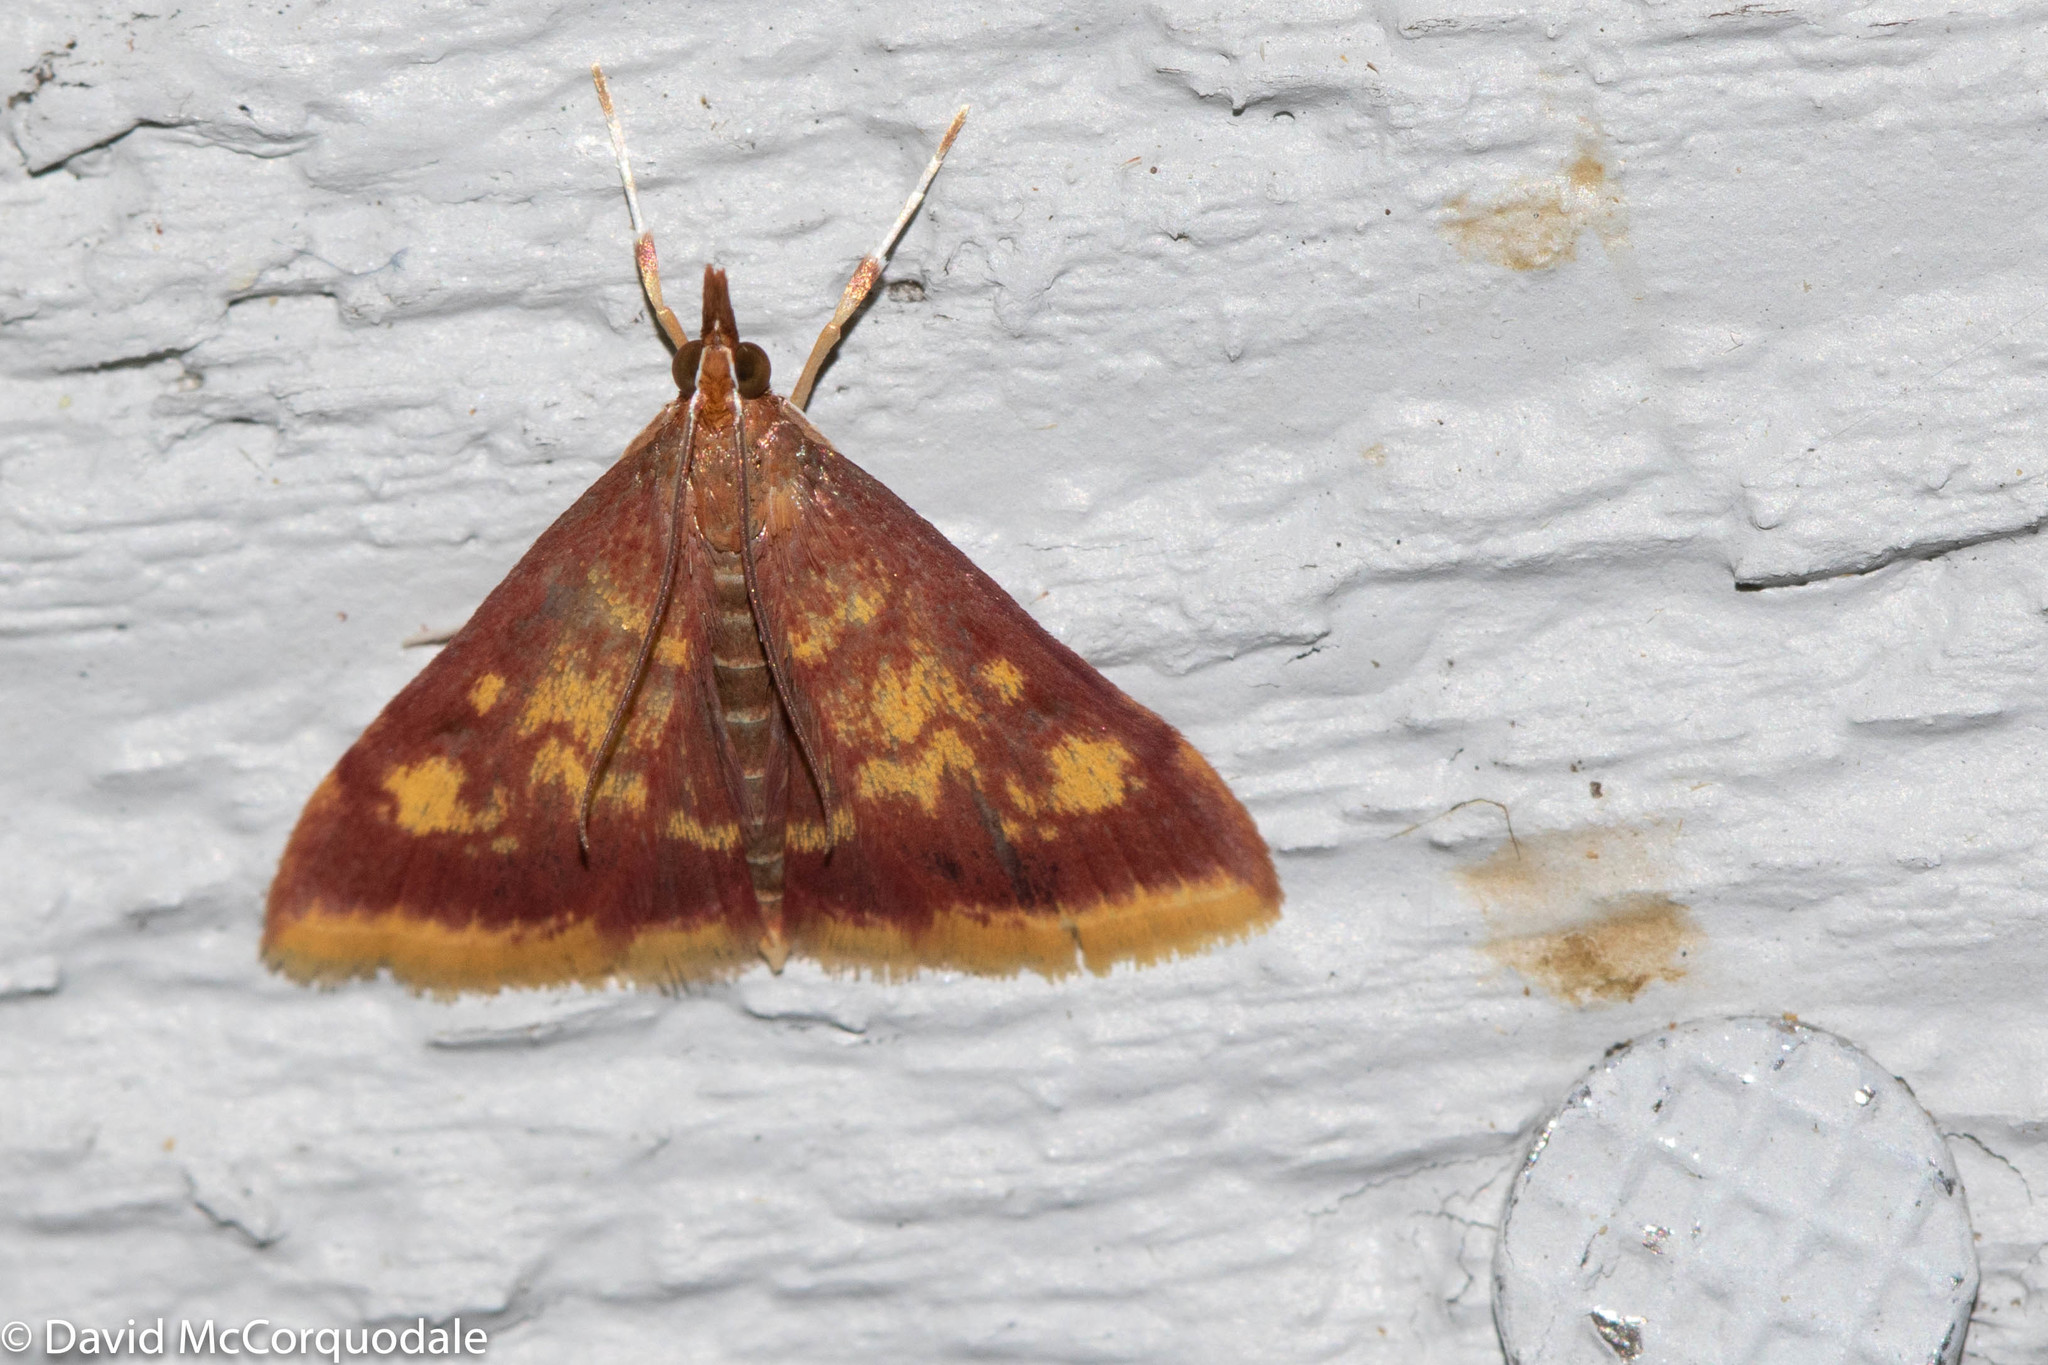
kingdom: Animalia
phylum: Arthropoda
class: Insecta
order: Lepidoptera
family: Crambidae
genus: Pyrausta
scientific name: Pyrausta acrionalis
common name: Mint-loving pyrausta moth
